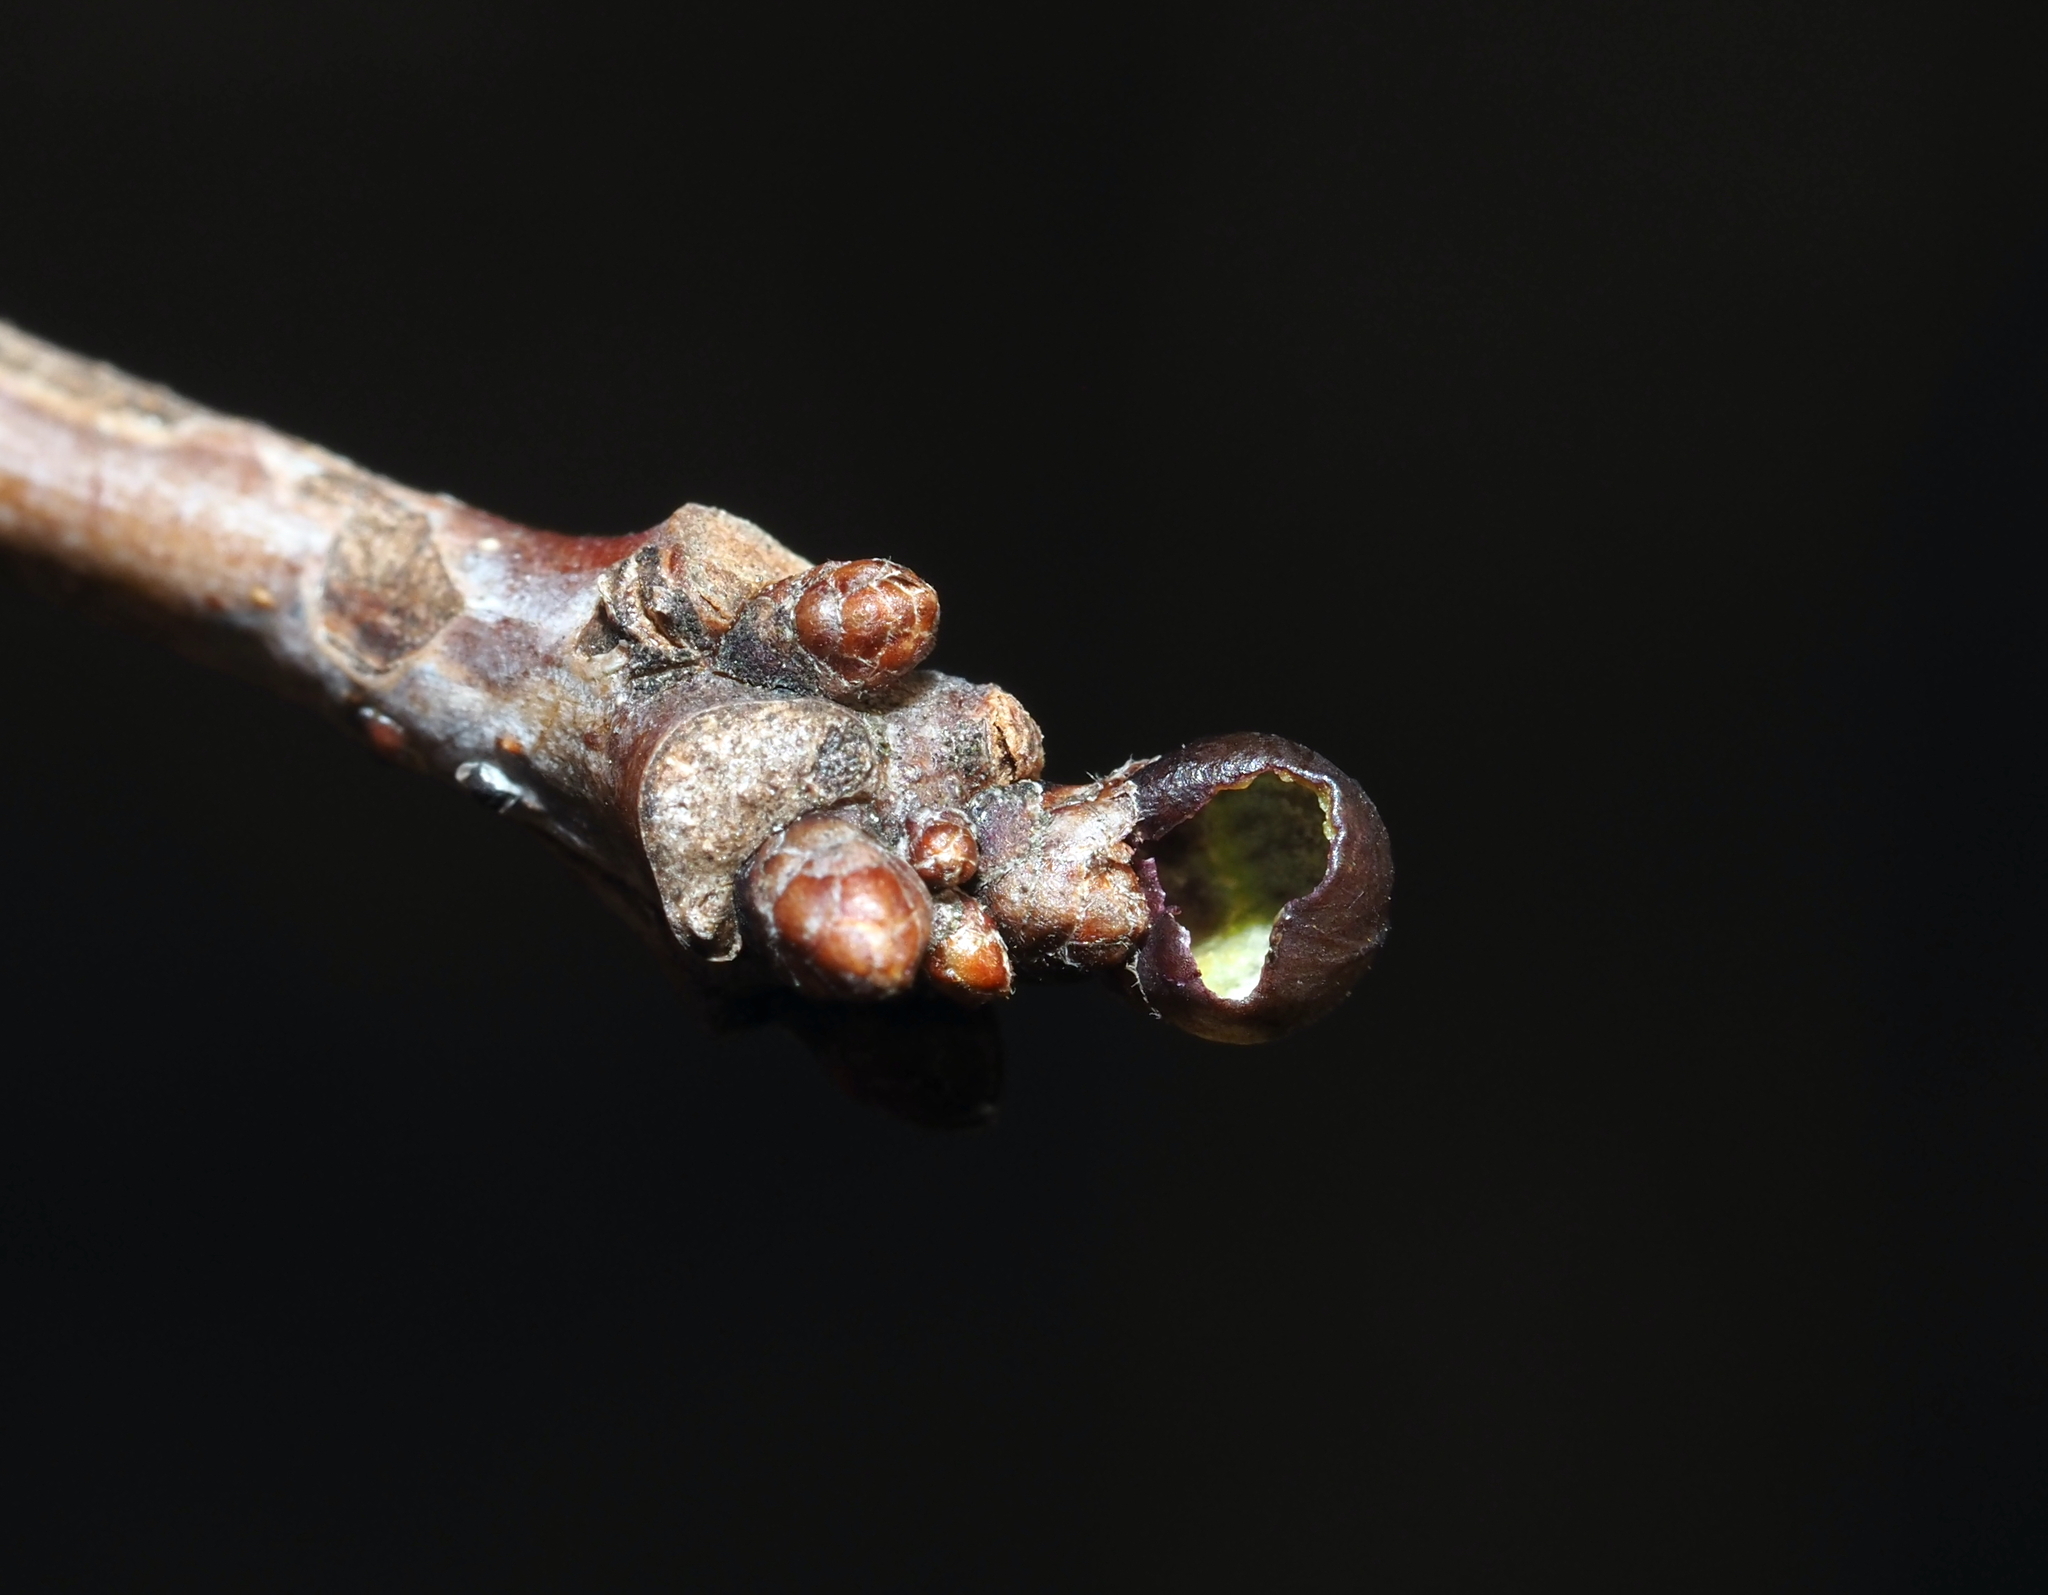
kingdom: Animalia
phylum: Arthropoda
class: Insecta
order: Hymenoptera
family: Cynipidae
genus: Neuroterus
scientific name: Neuroterus
